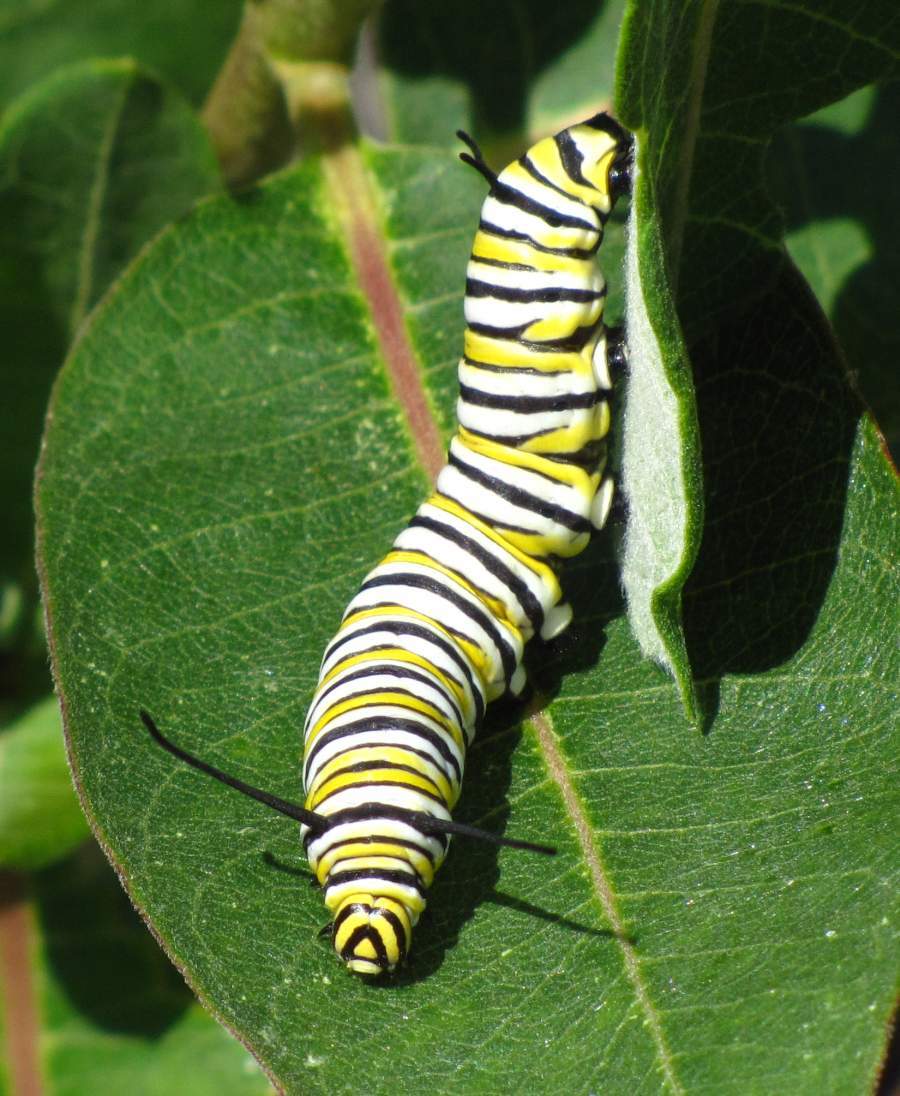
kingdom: Animalia
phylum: Arthropoda
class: Insecta
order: Lepidoptera
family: Nymphalidae
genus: Danaus
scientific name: Danaus plexippus
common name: Monarch
